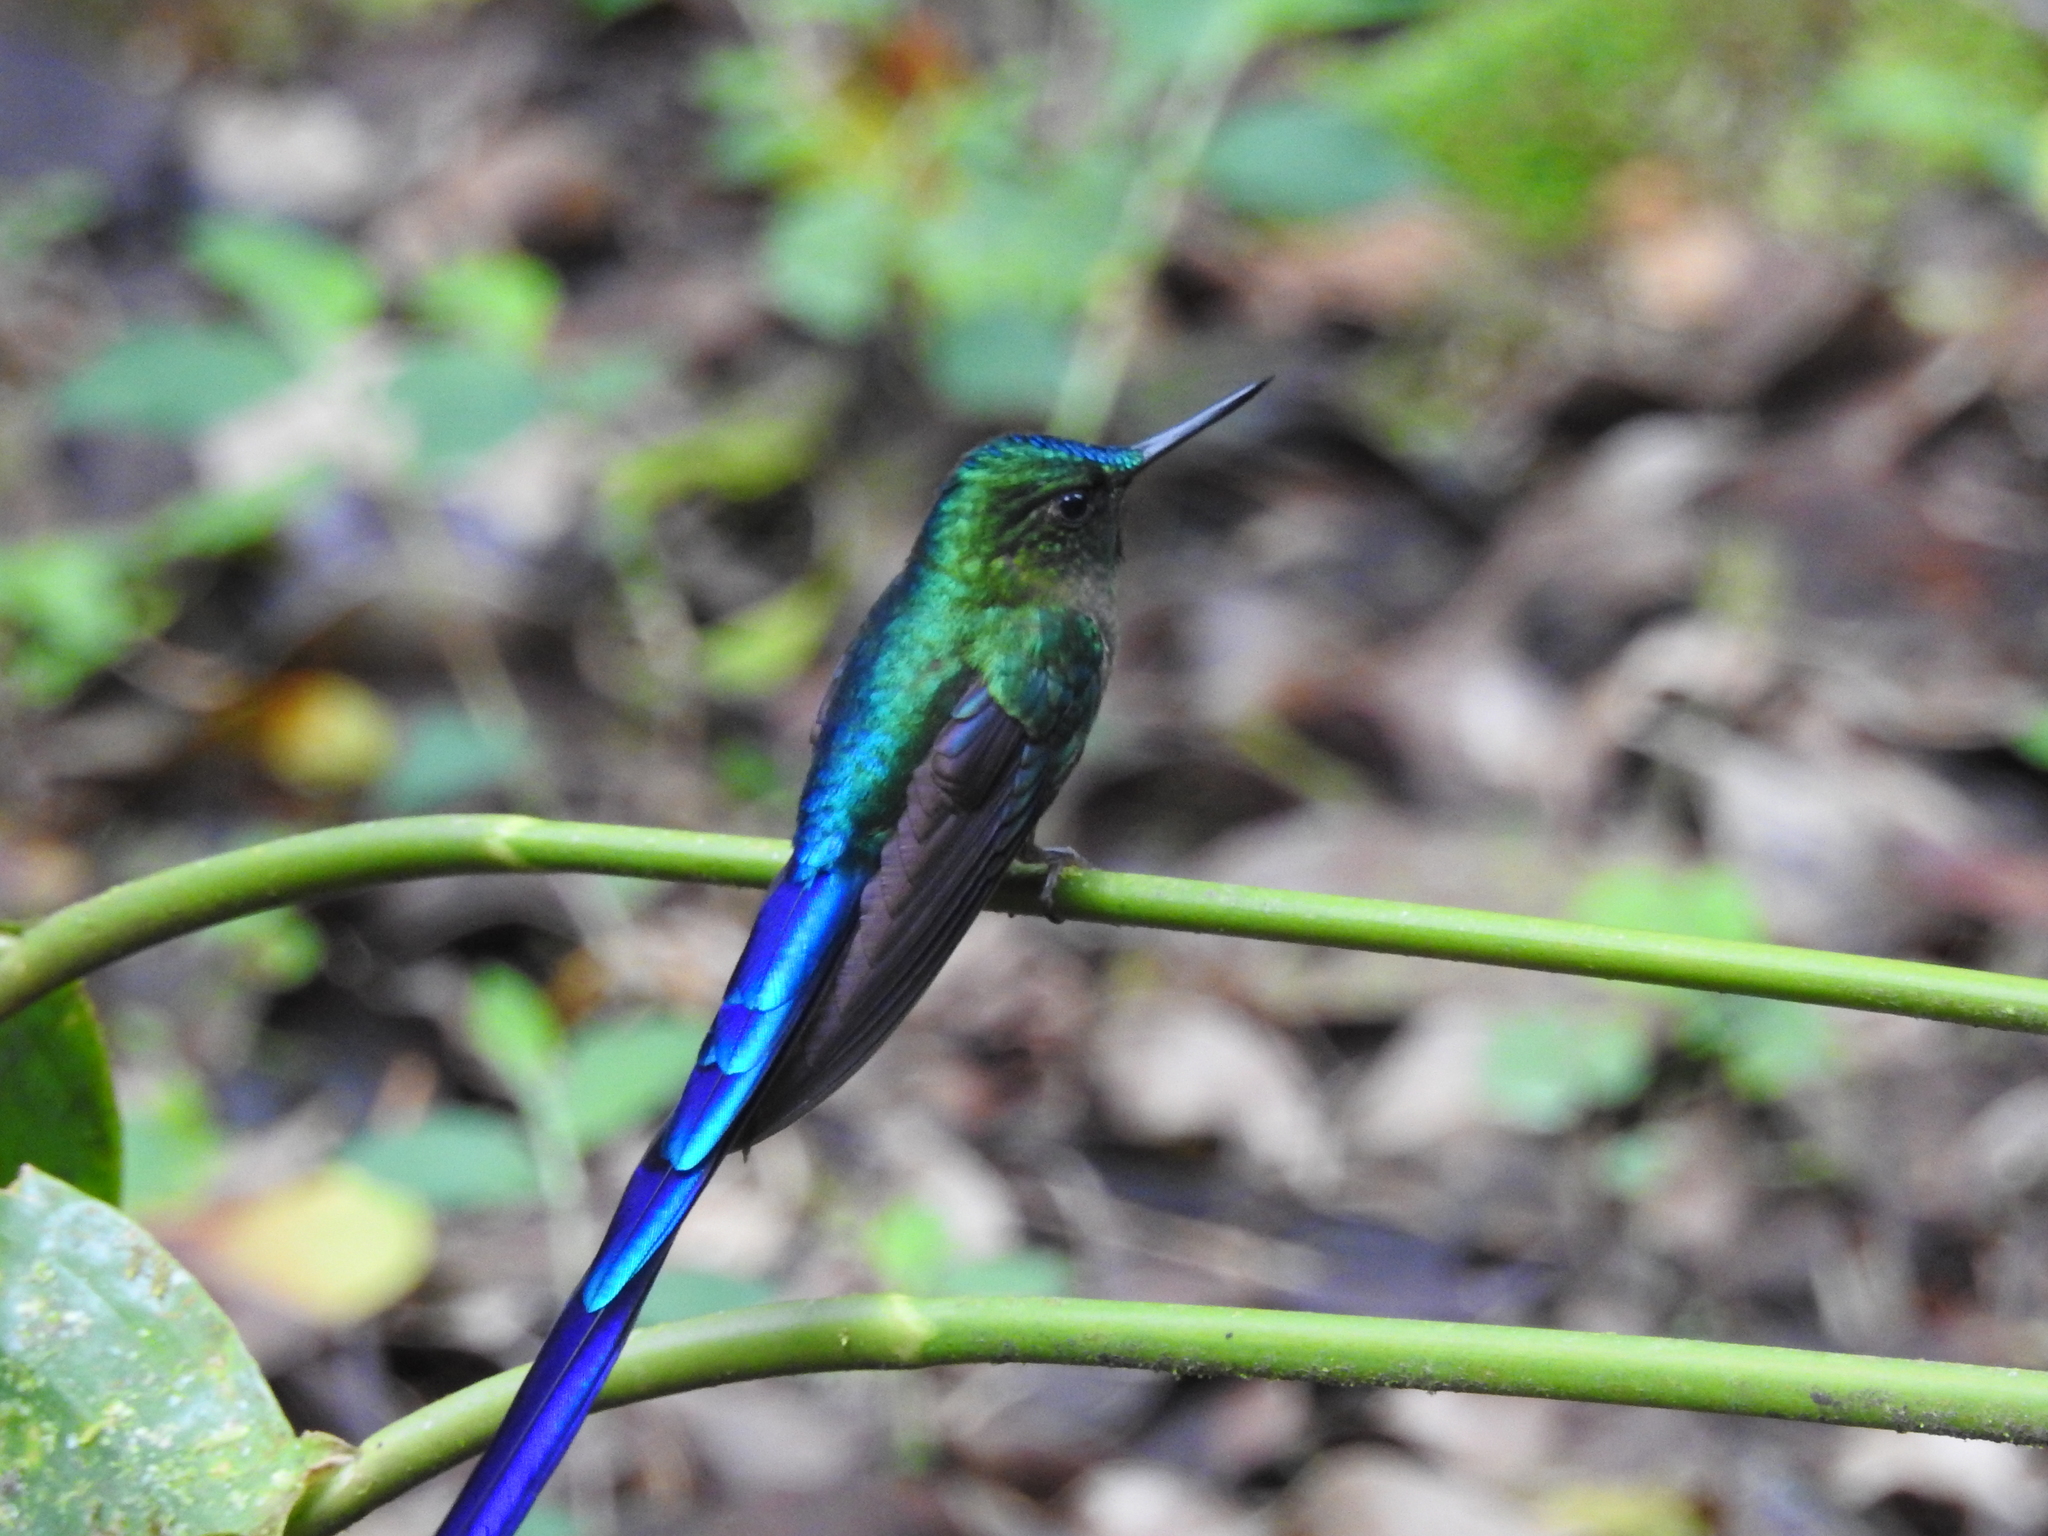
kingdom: Animalia
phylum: Chordata
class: Aves
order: Apodiformes
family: Trochilidae
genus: Aglaiocercus
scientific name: Aglaiocercus coelestis
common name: Violet-tailed sylph
